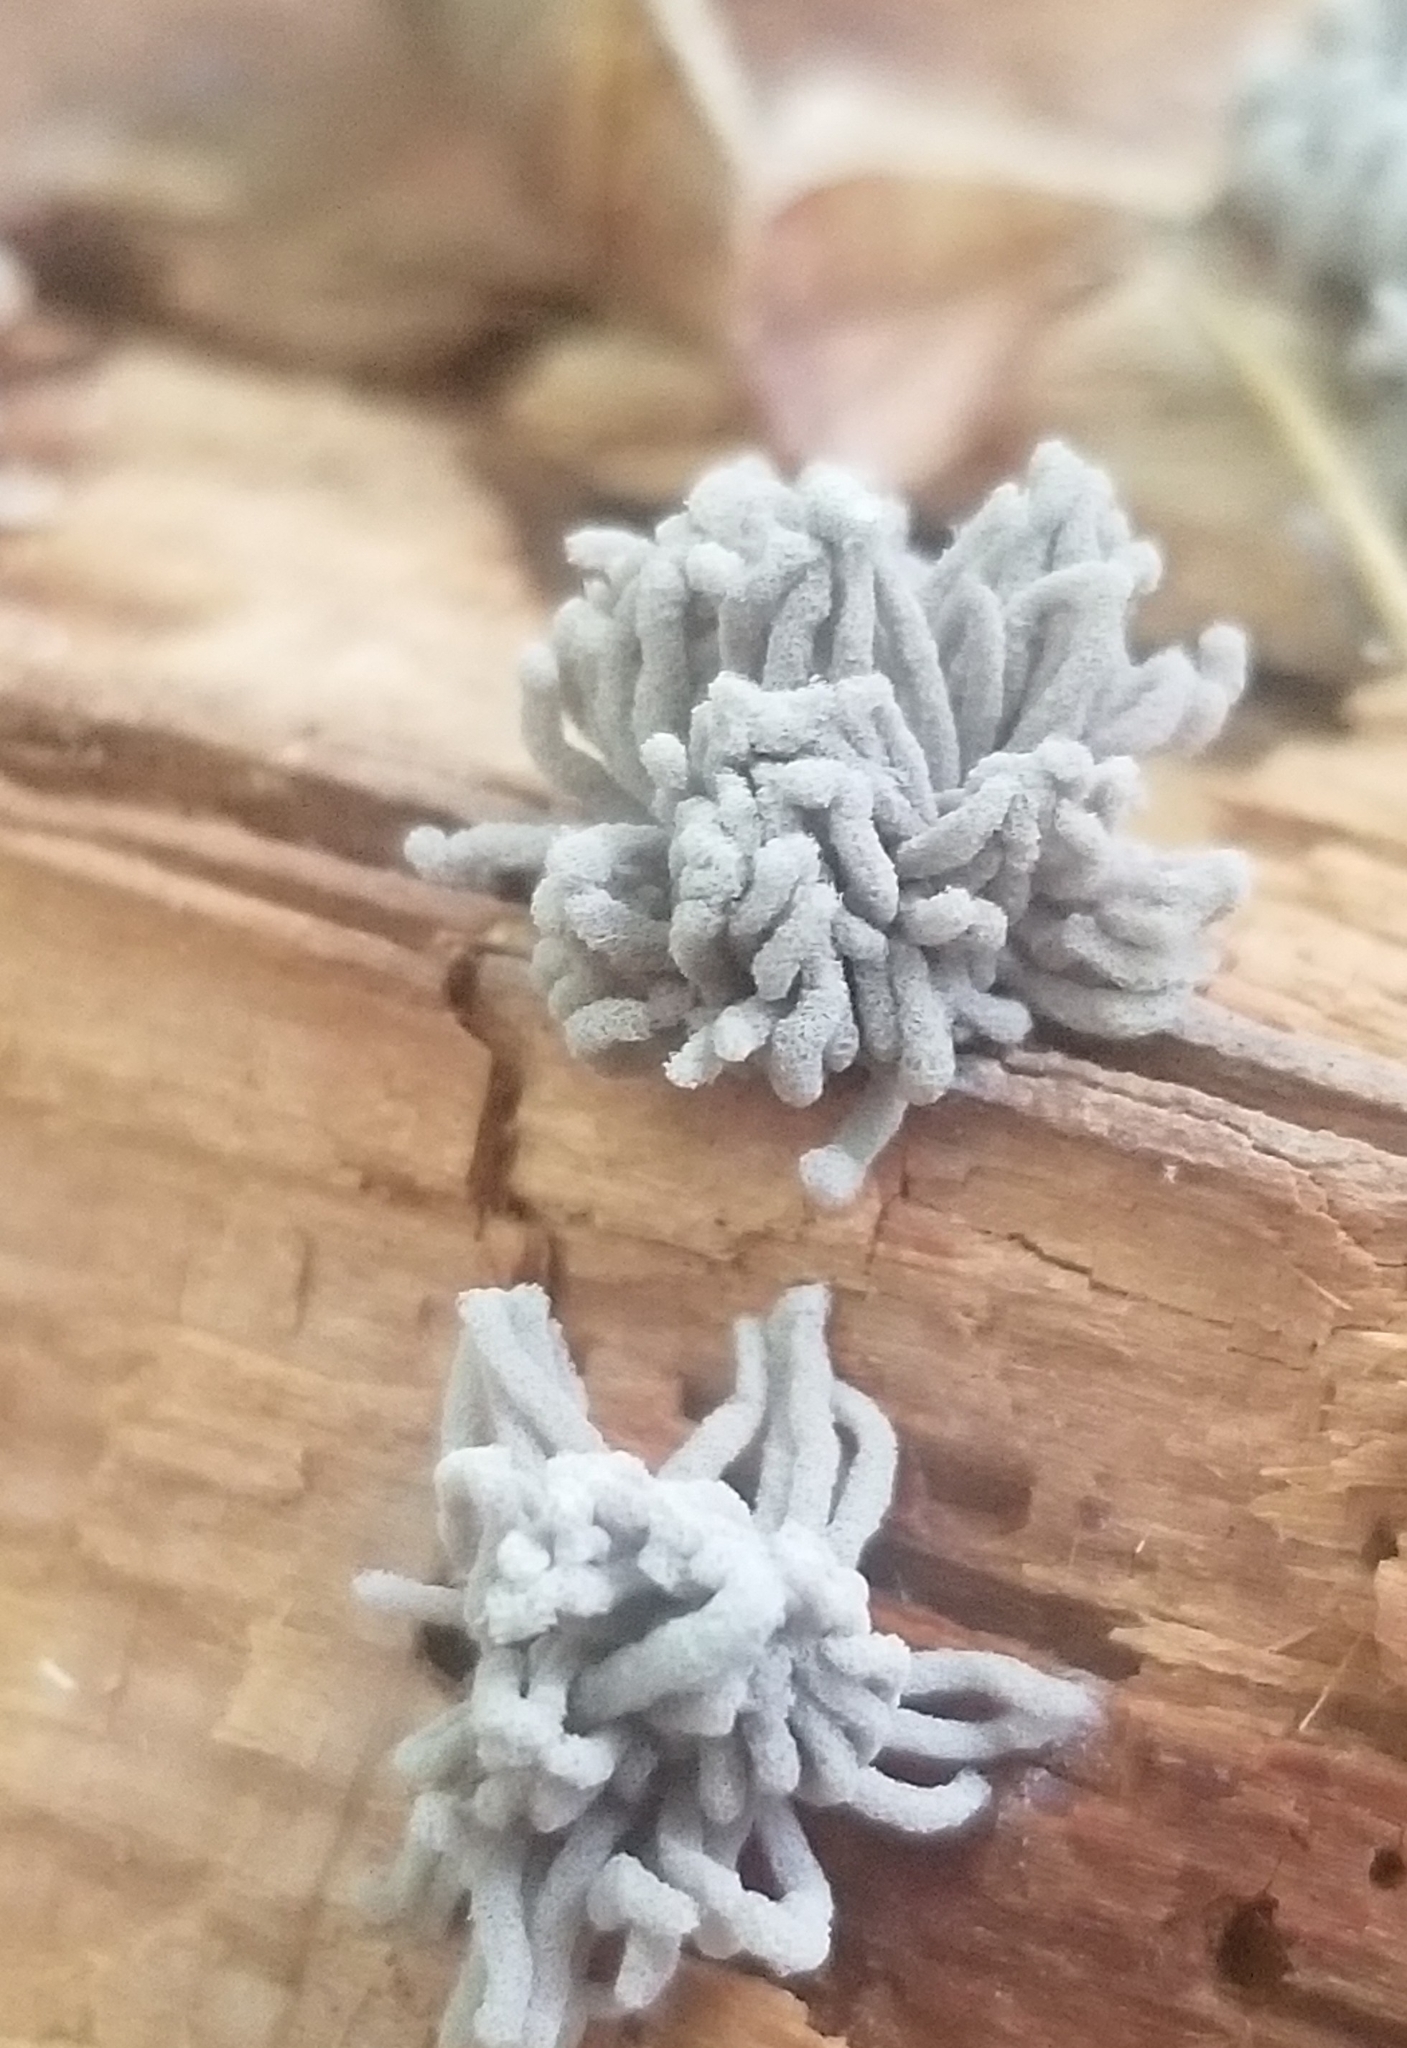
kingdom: Protozoa
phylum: Mycetozoa
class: Myxomycetes
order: Trichiales
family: Arcyriaceae
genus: Arcyria
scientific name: Arcyria cinerea
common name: White carnival candy slime mold
